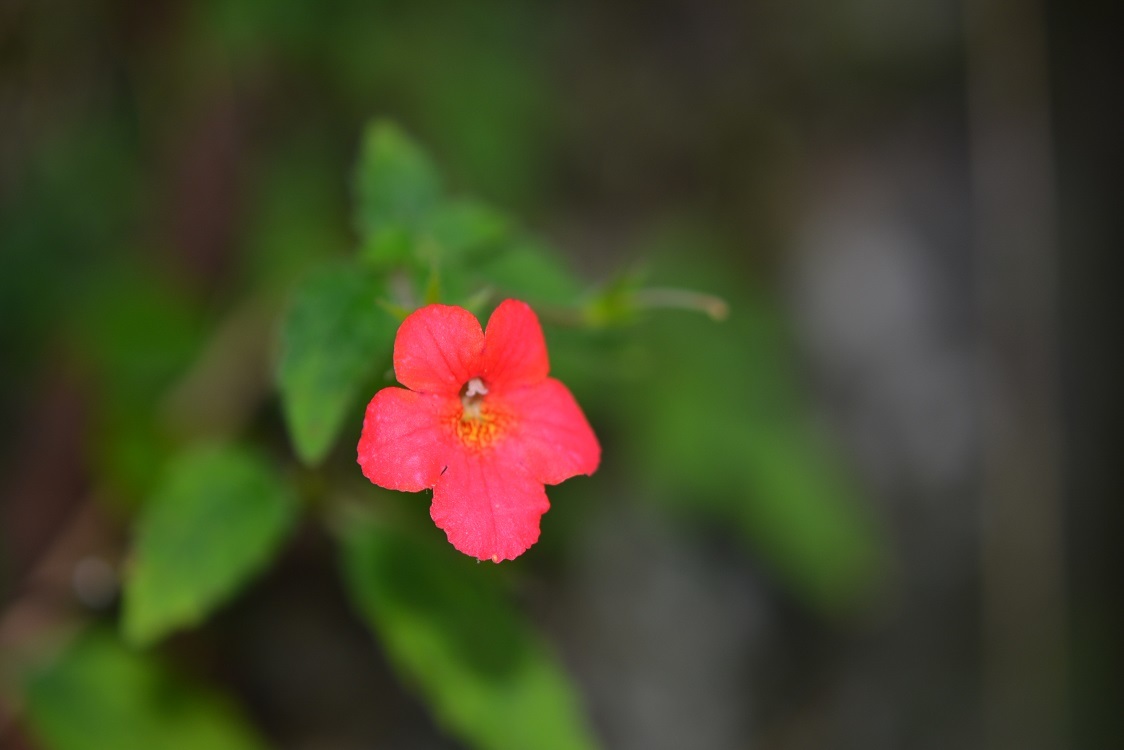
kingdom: Plantae
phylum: Tracheophyta
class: Magnoliopsida
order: Lamiales
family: Gesneriaceae
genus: Achimenes
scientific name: Achimenes erecta
